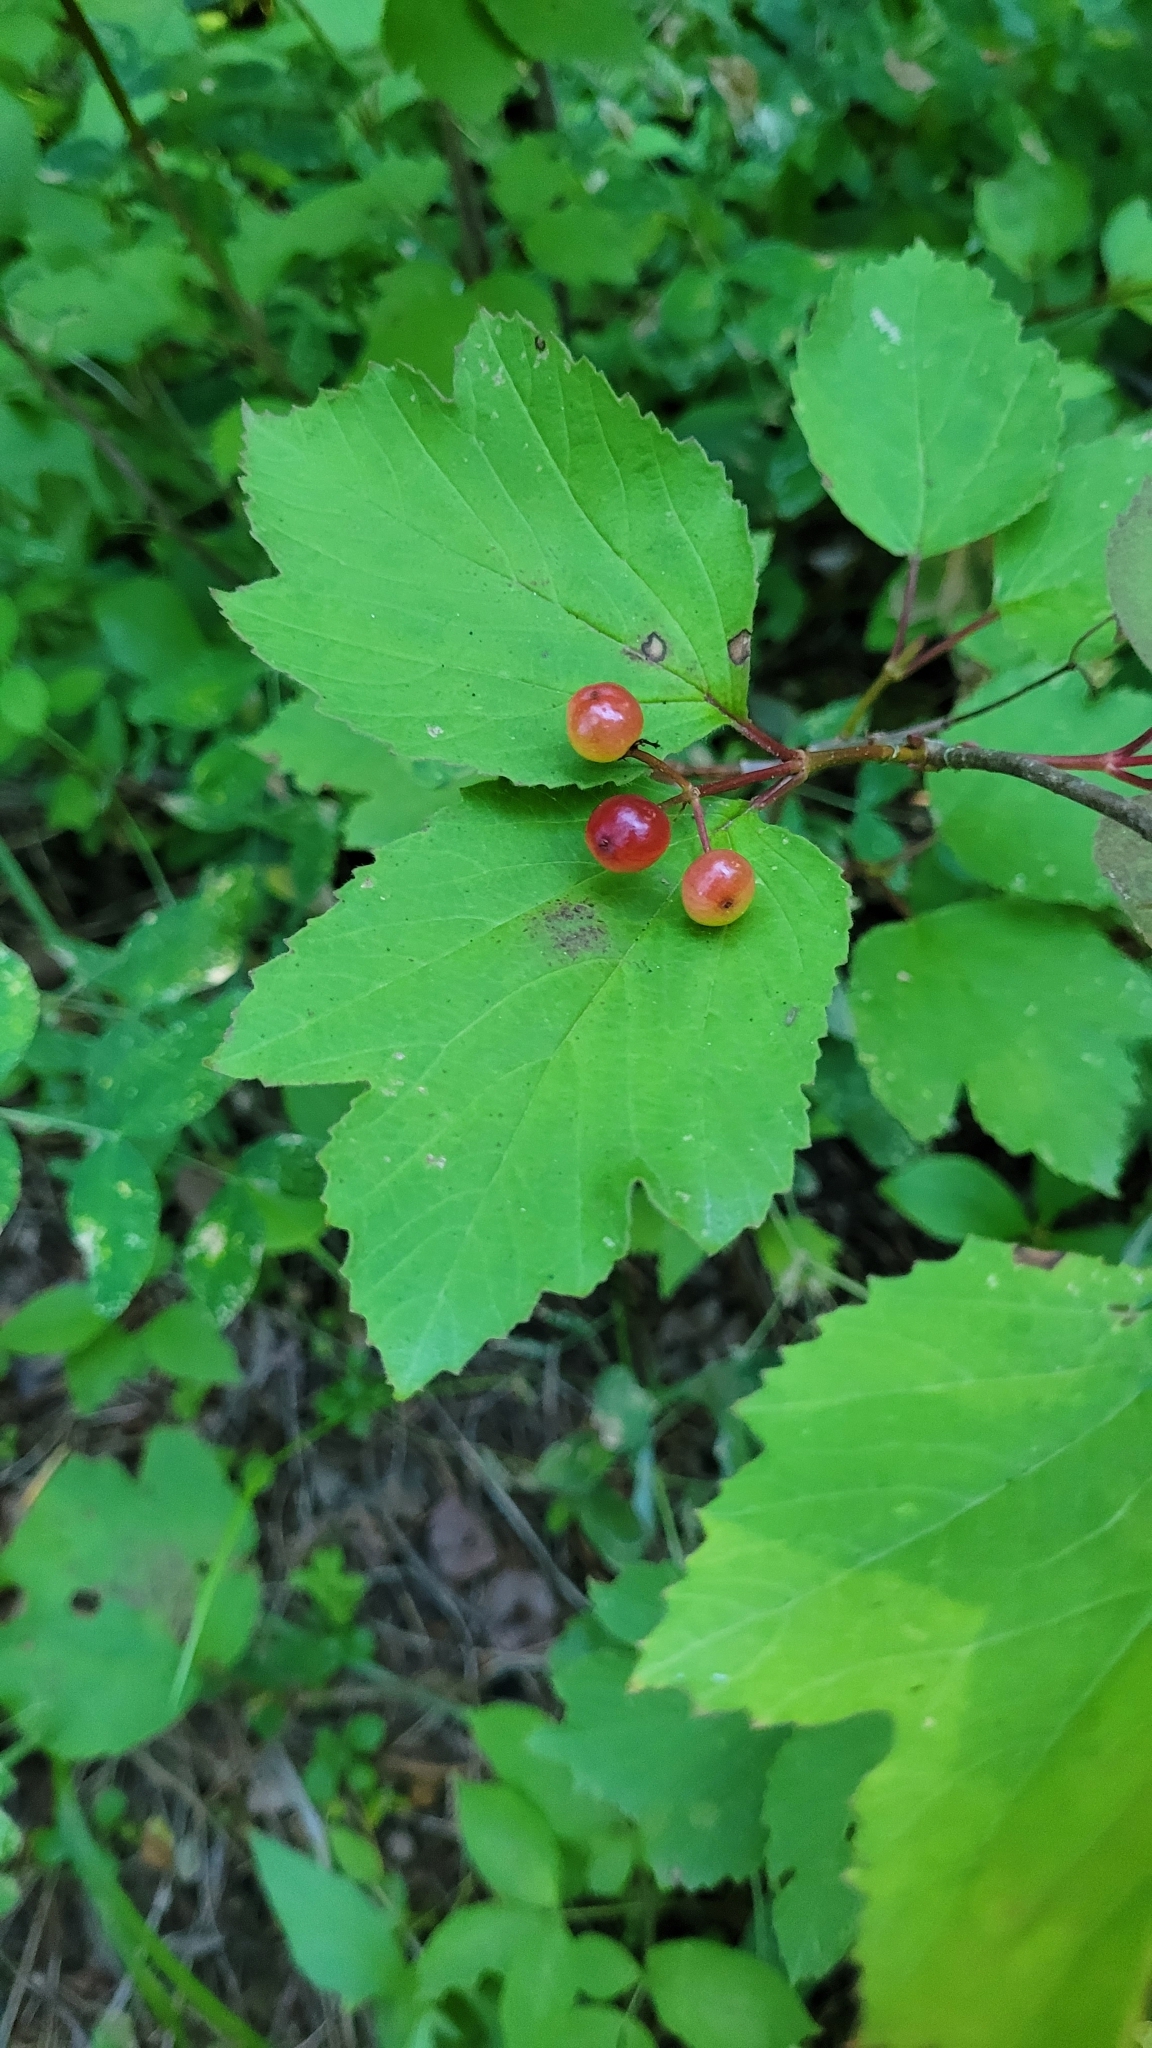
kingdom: Plantae
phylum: Tracheophyta
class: Magnoliopsida
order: Dipsacales
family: Viburnaceae
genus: Viburnum
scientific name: Viburnum edule
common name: Mooseberry
